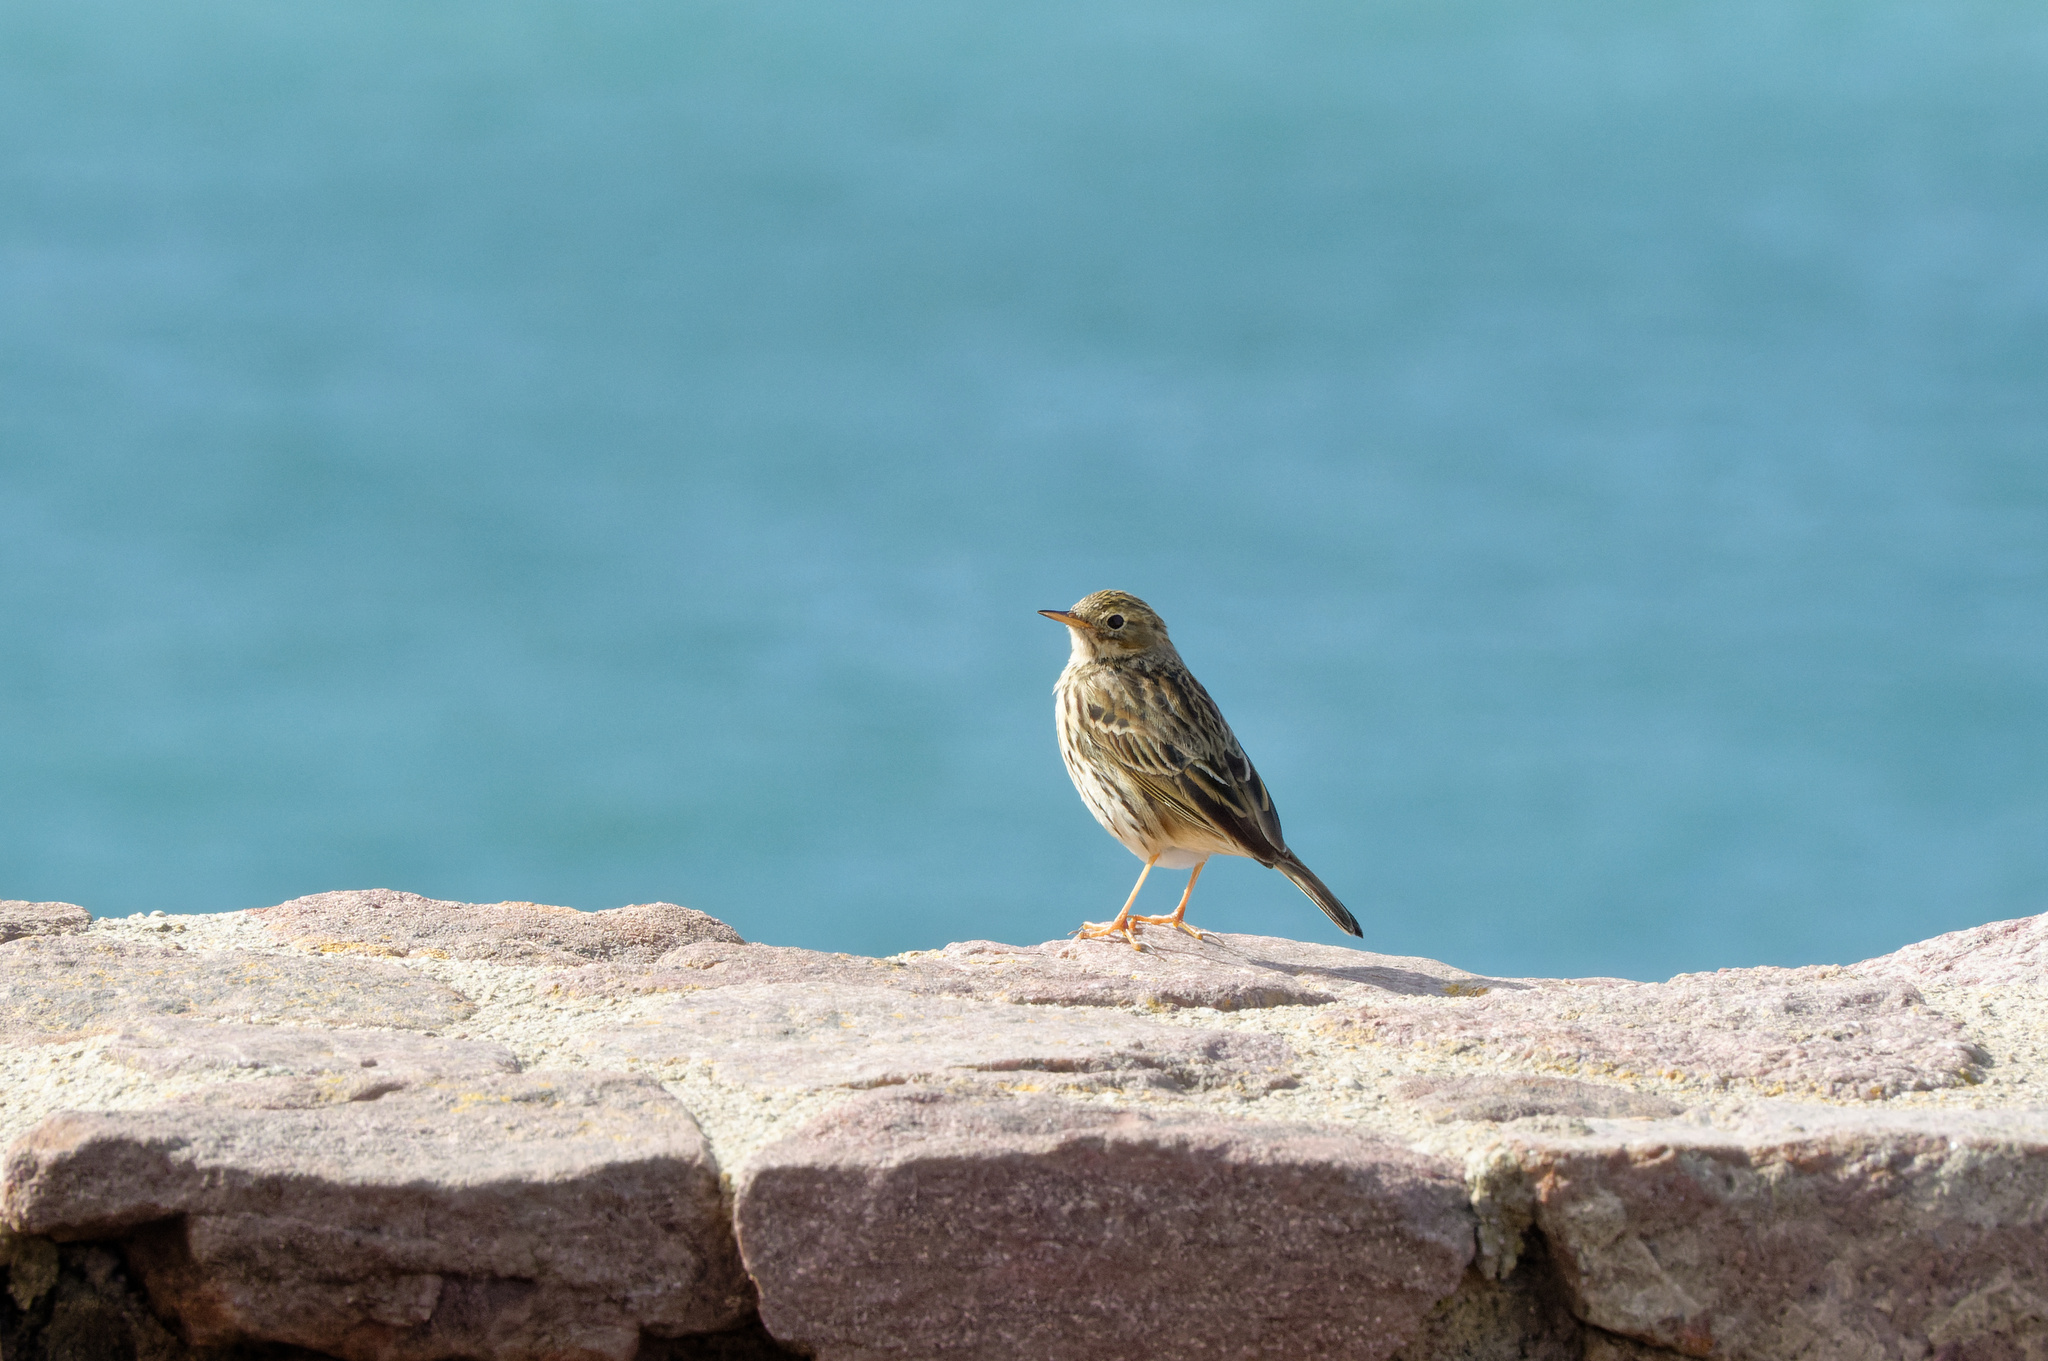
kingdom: Animalia
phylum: Chordata
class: Aves
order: Passeriformes
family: Motacillidae
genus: Anthus
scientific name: Anthus pratensis
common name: Meadow pipit
